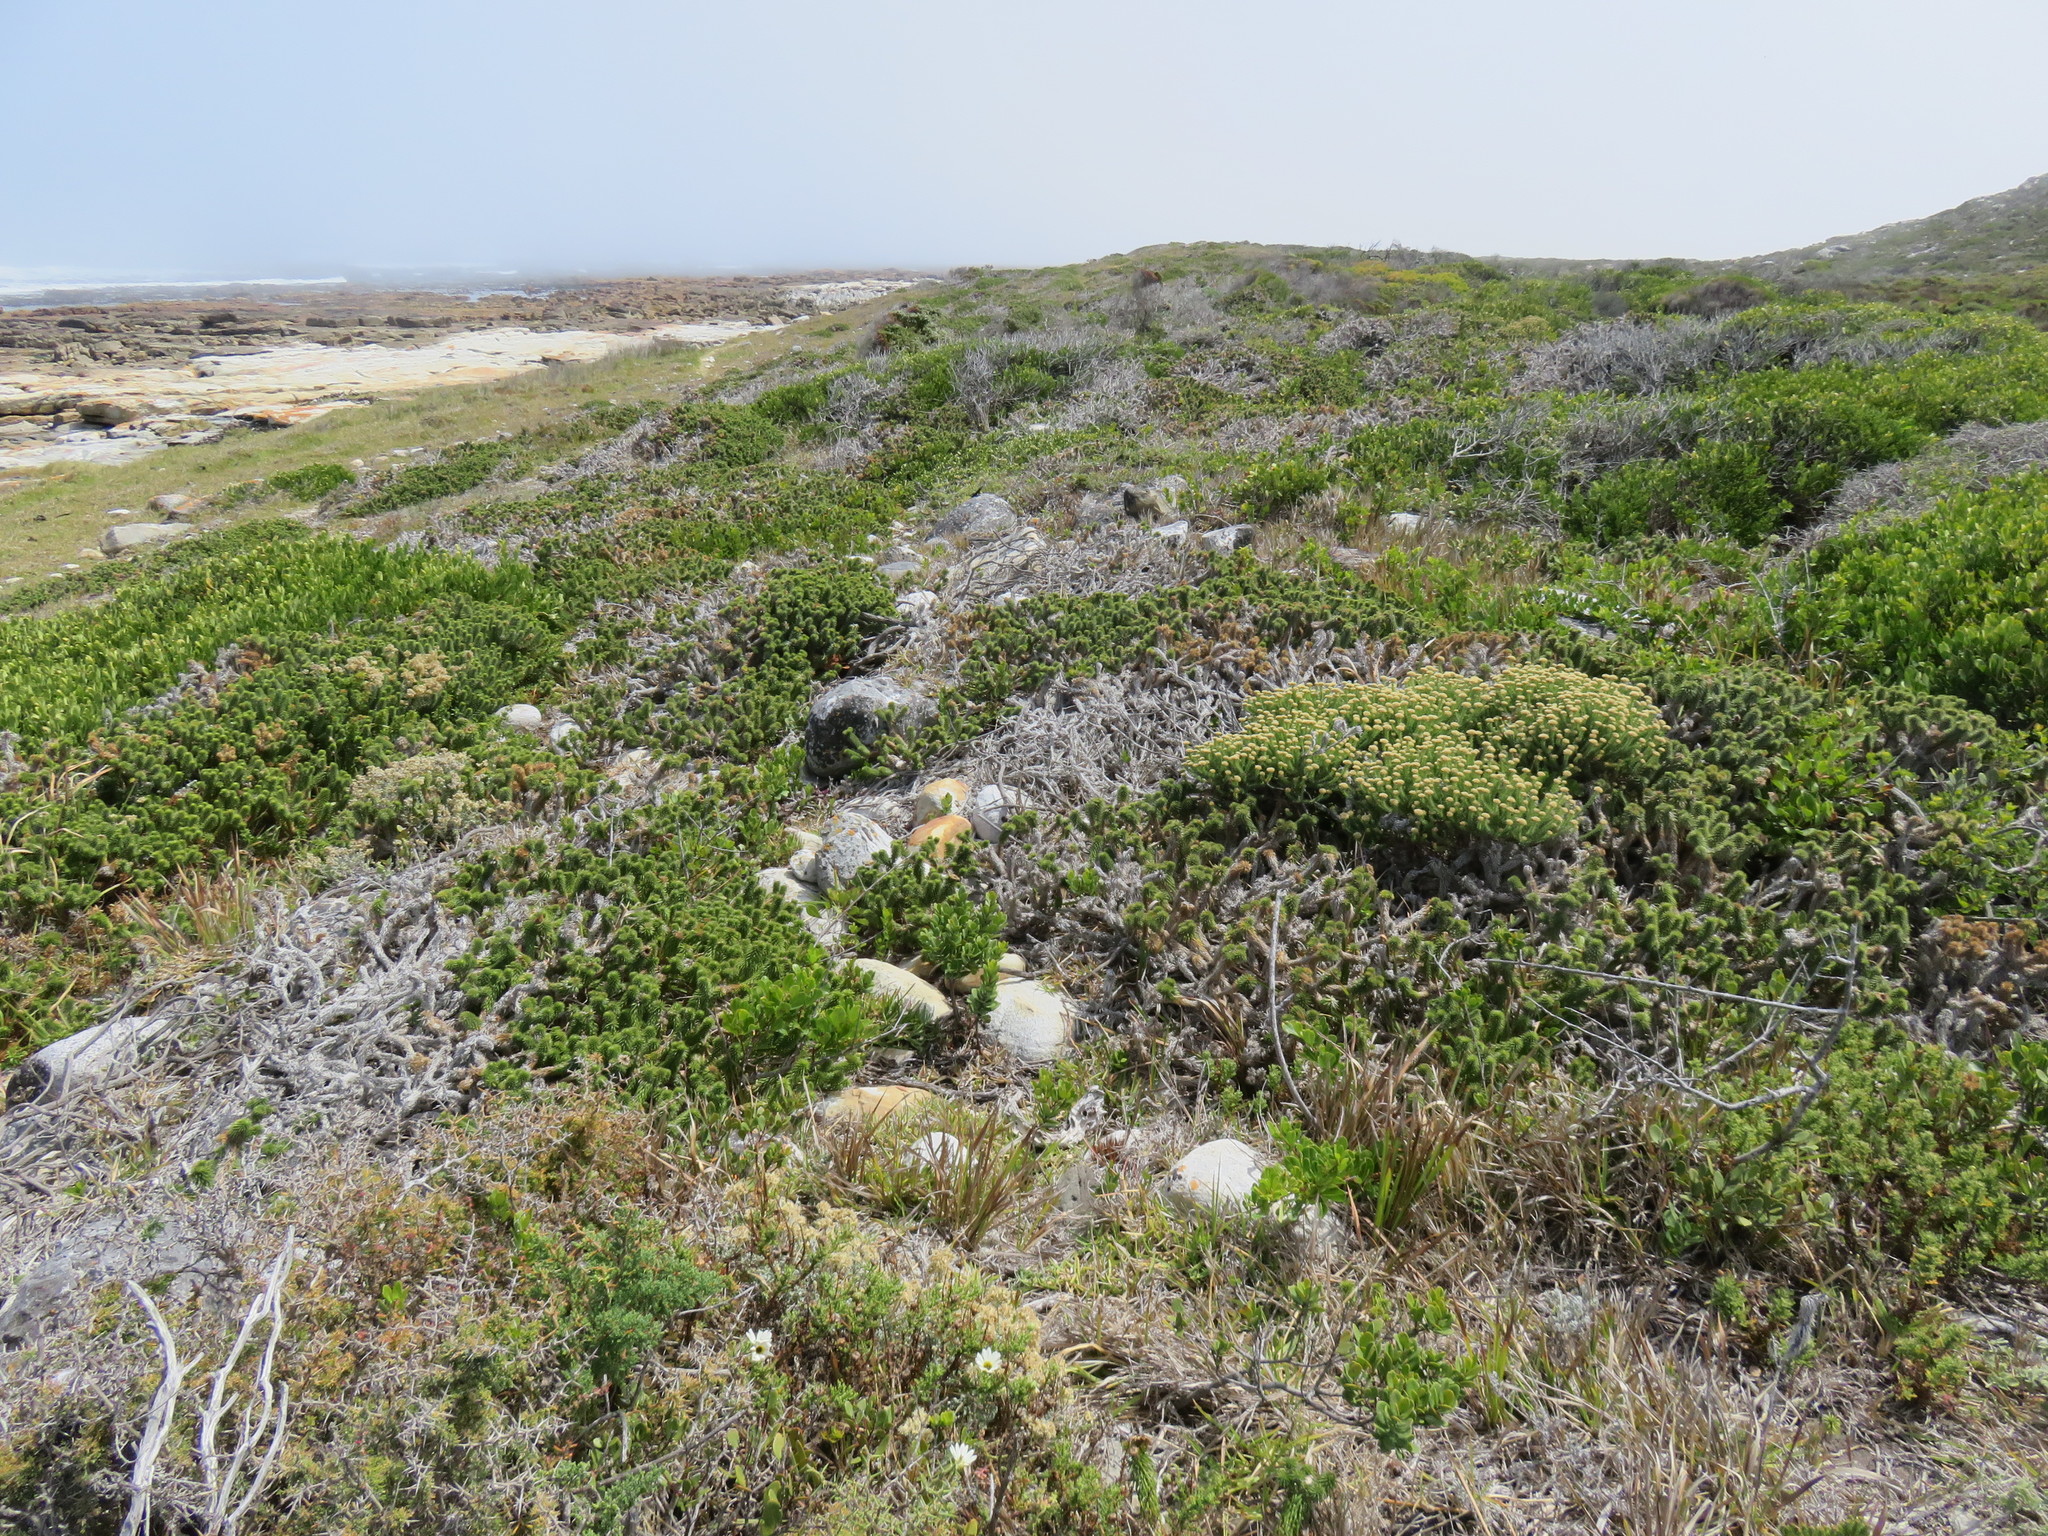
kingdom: Plantae
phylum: Tracheophyta
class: Magnoliopsida
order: Asterales
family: Asteraceae
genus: Cullumia
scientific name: Cullumia squarrosa
